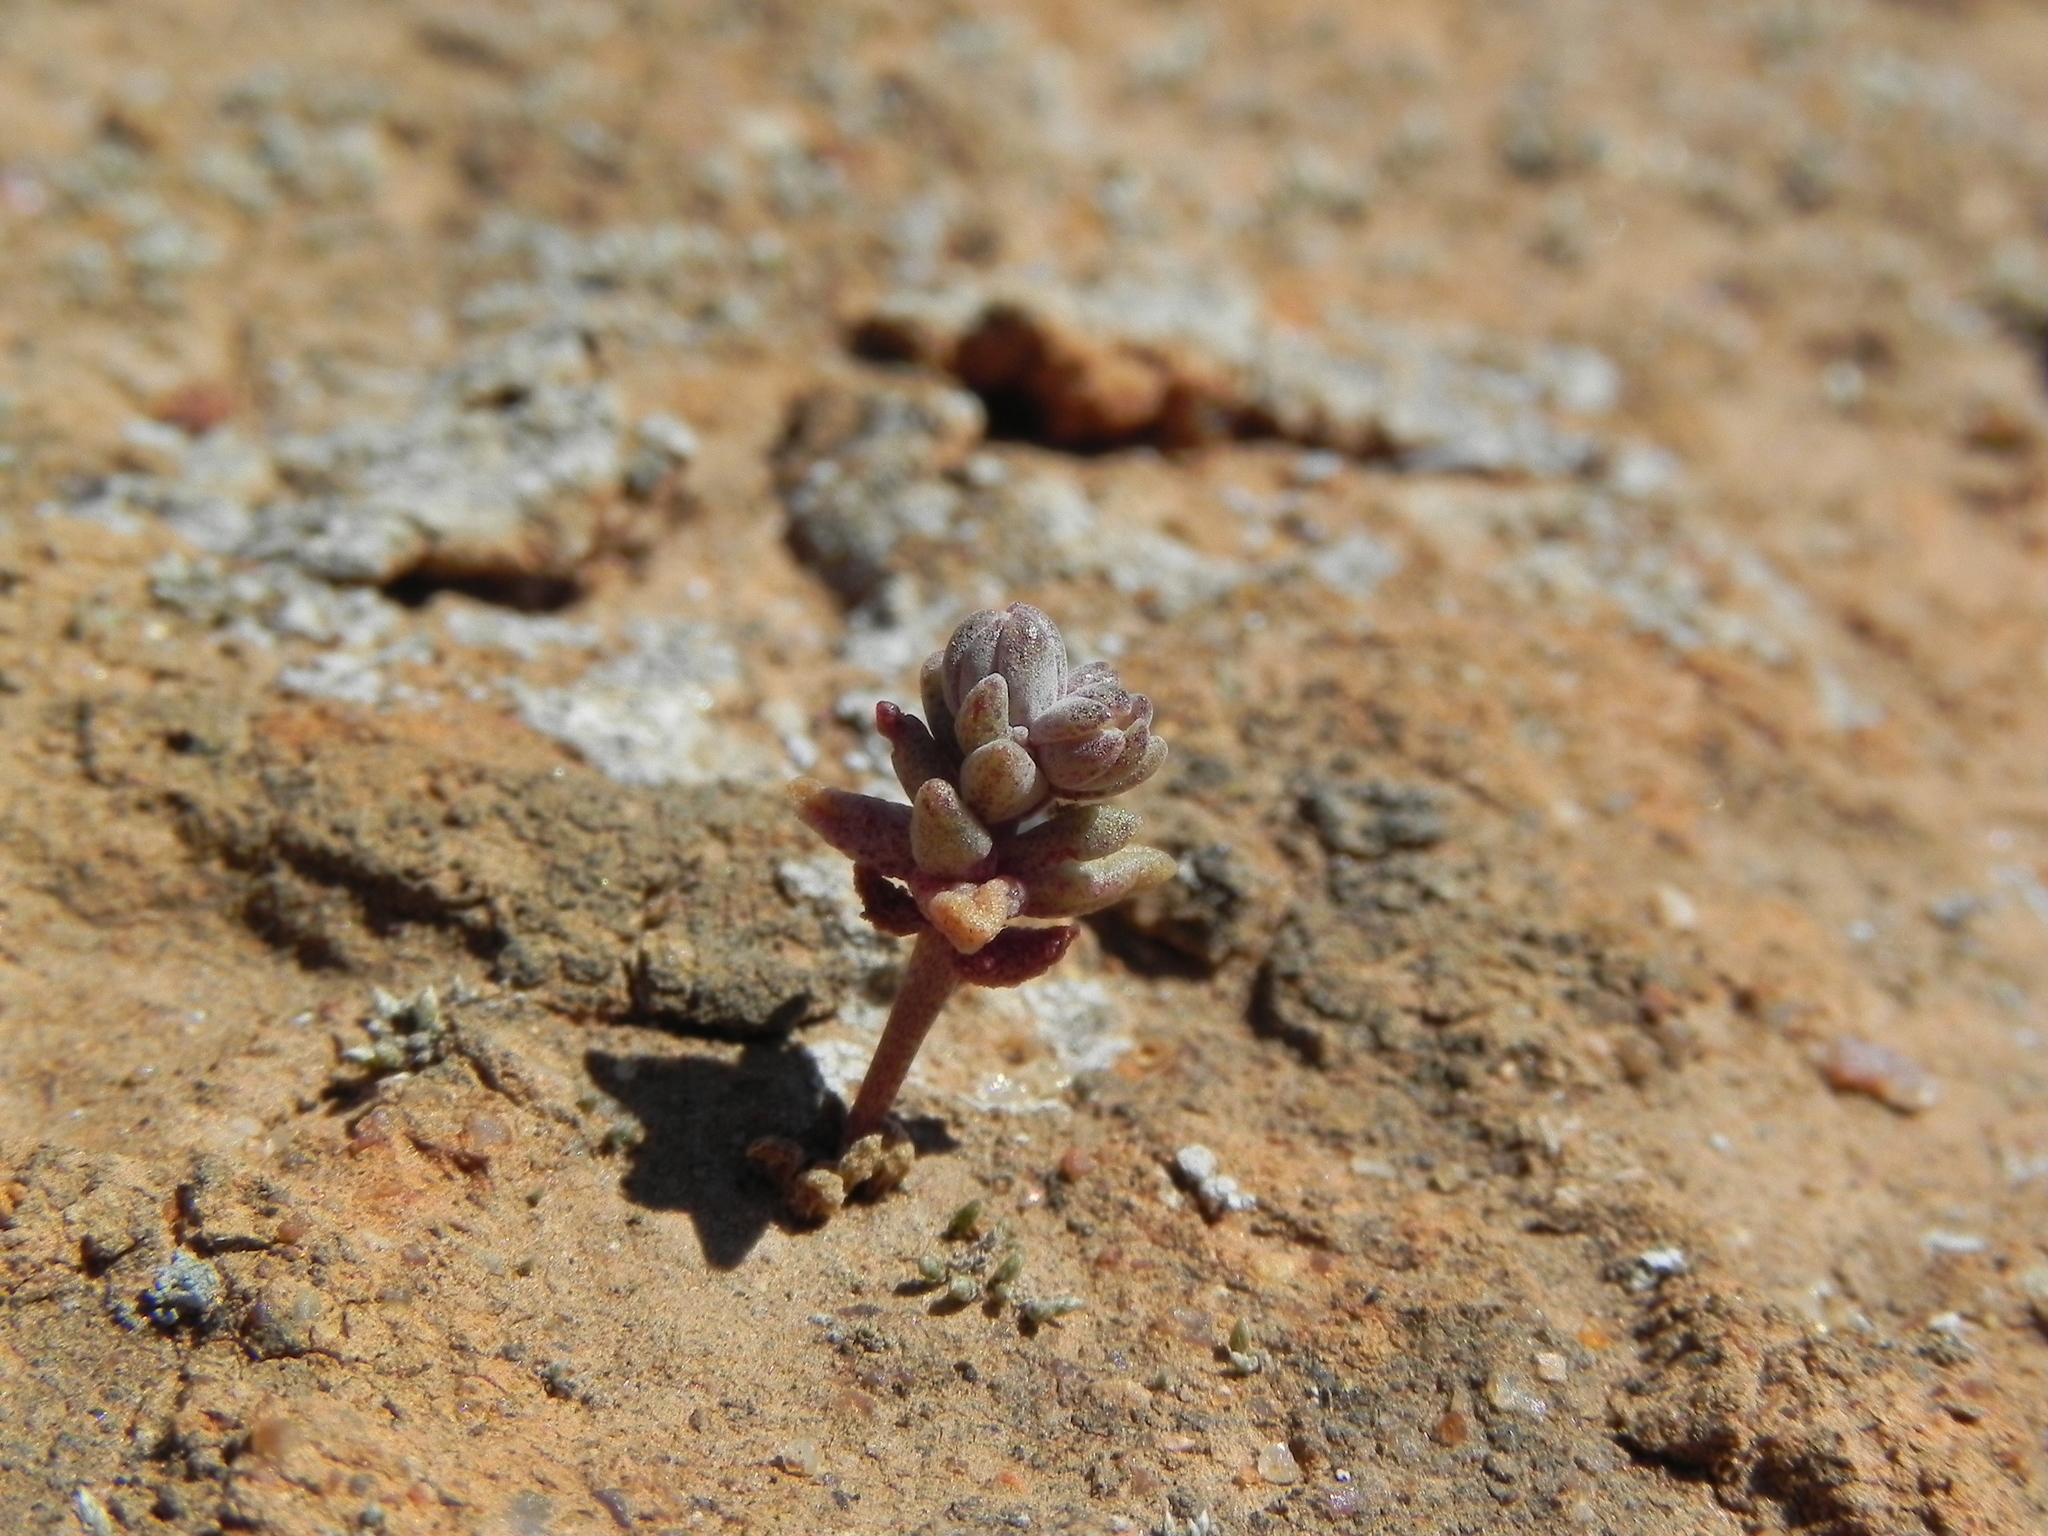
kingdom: Plantae
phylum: Tracheophyta
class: Magnoliopsida
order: Saxifragales
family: Crassulaceae
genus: Dudleya
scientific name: Dudleya blochmaniae
